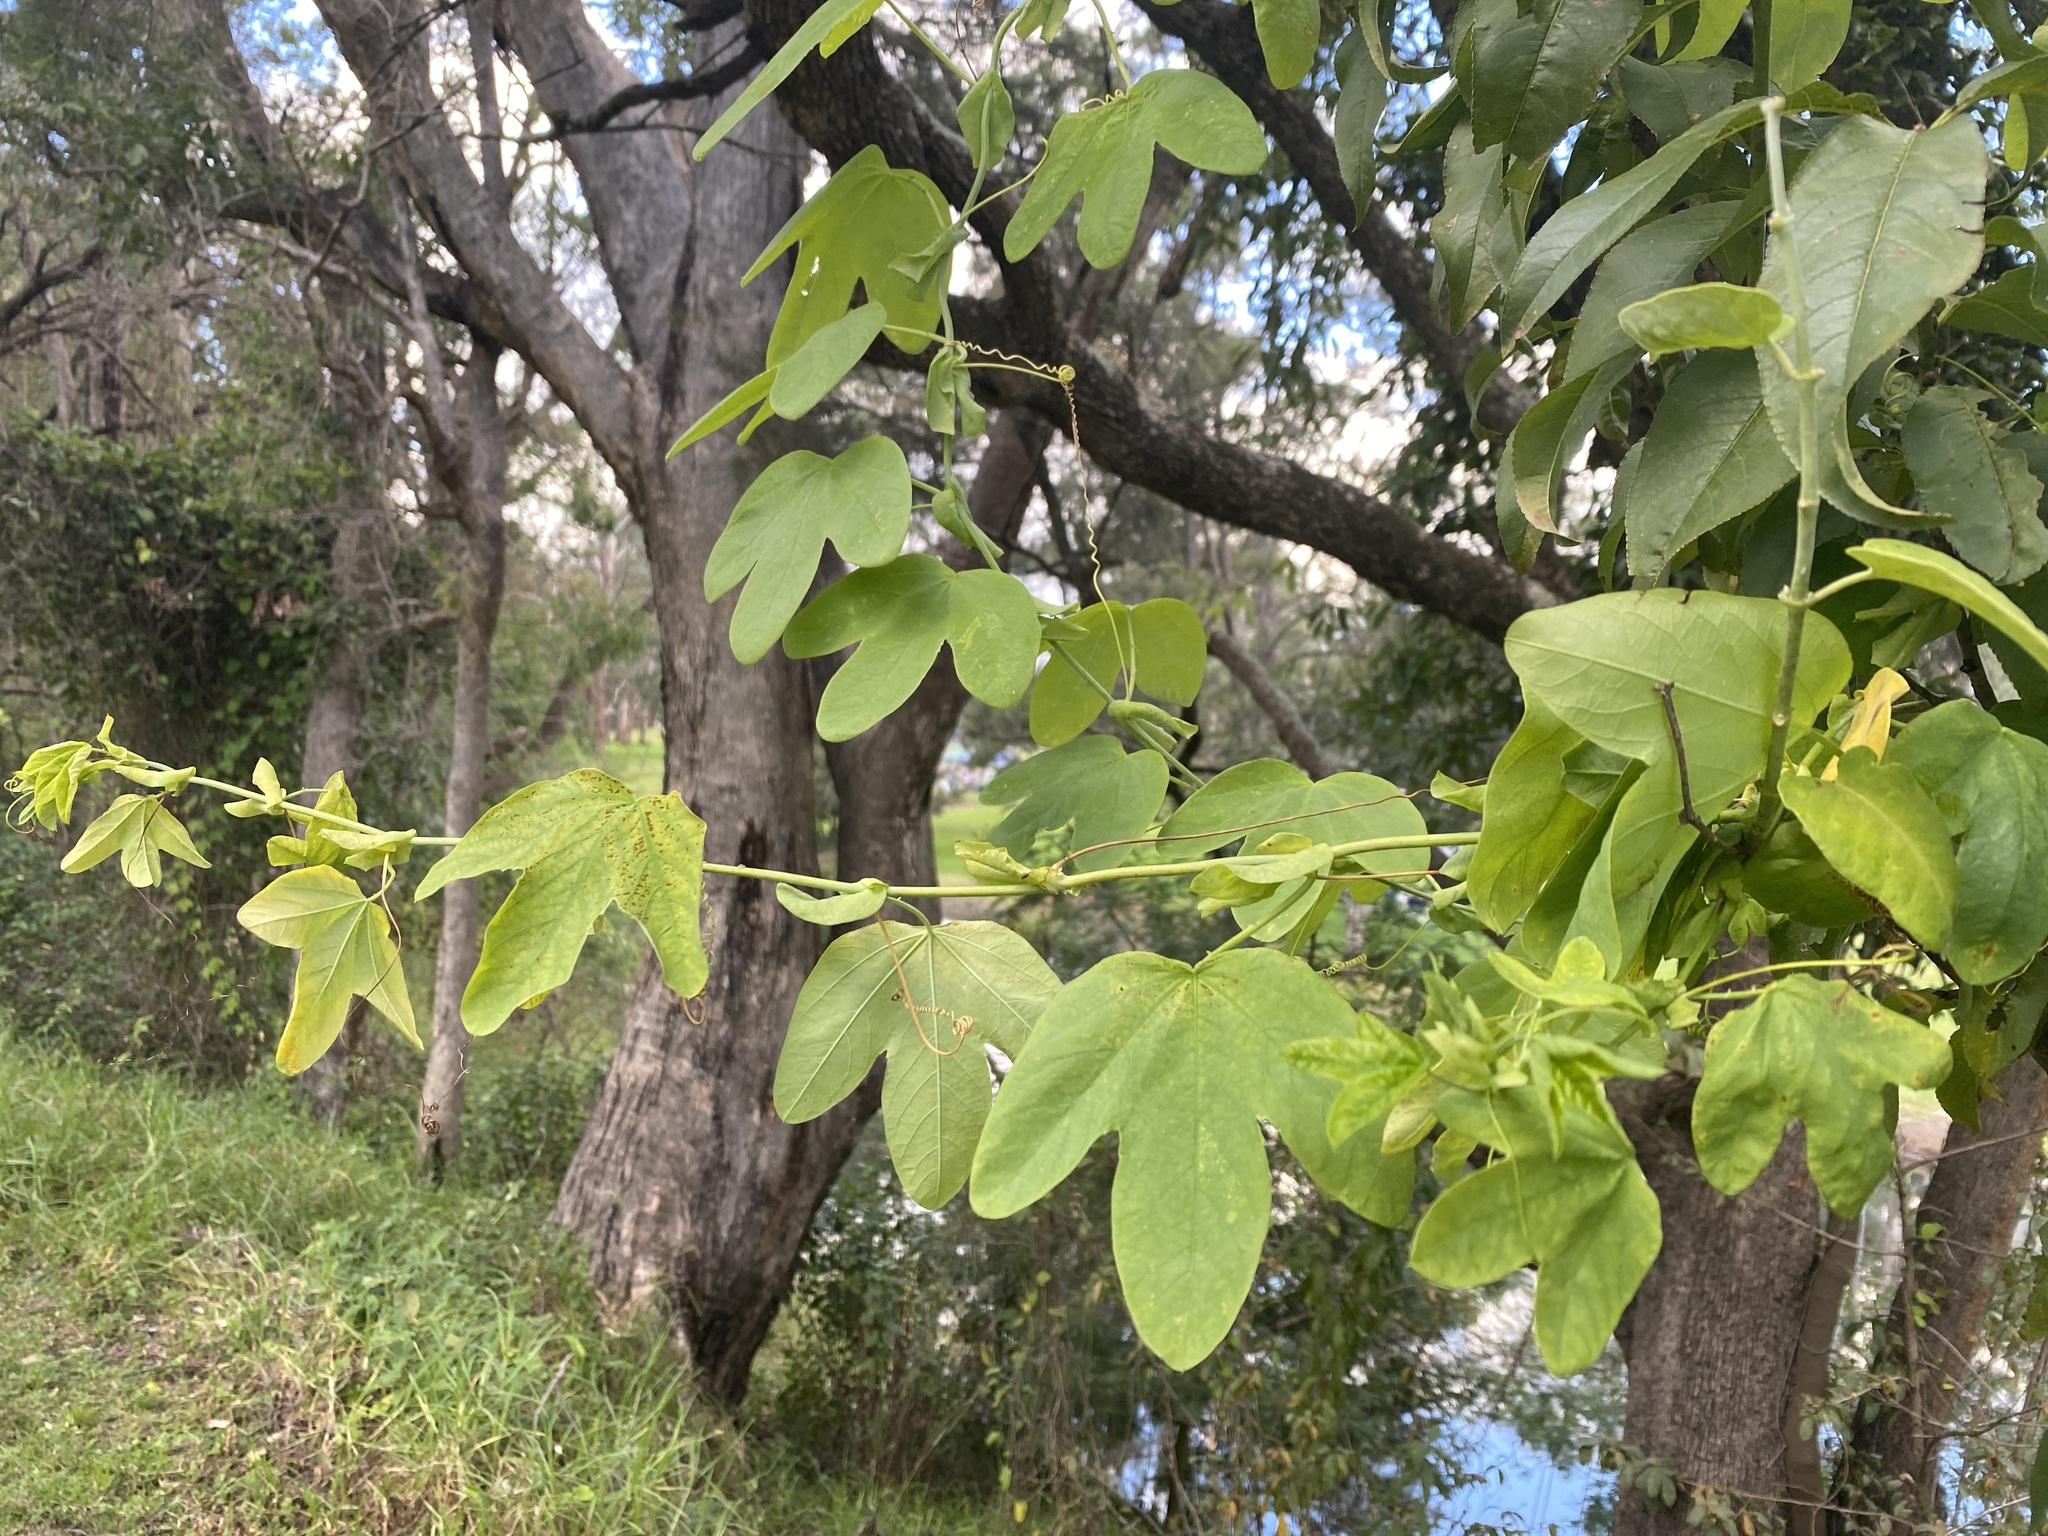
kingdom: Plantae
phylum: Tracheophyta
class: Magnoliopsida
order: Malpighiales
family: Passifloraceae
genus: Passiflora
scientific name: Passiflora subpeltata
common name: White passionflower
